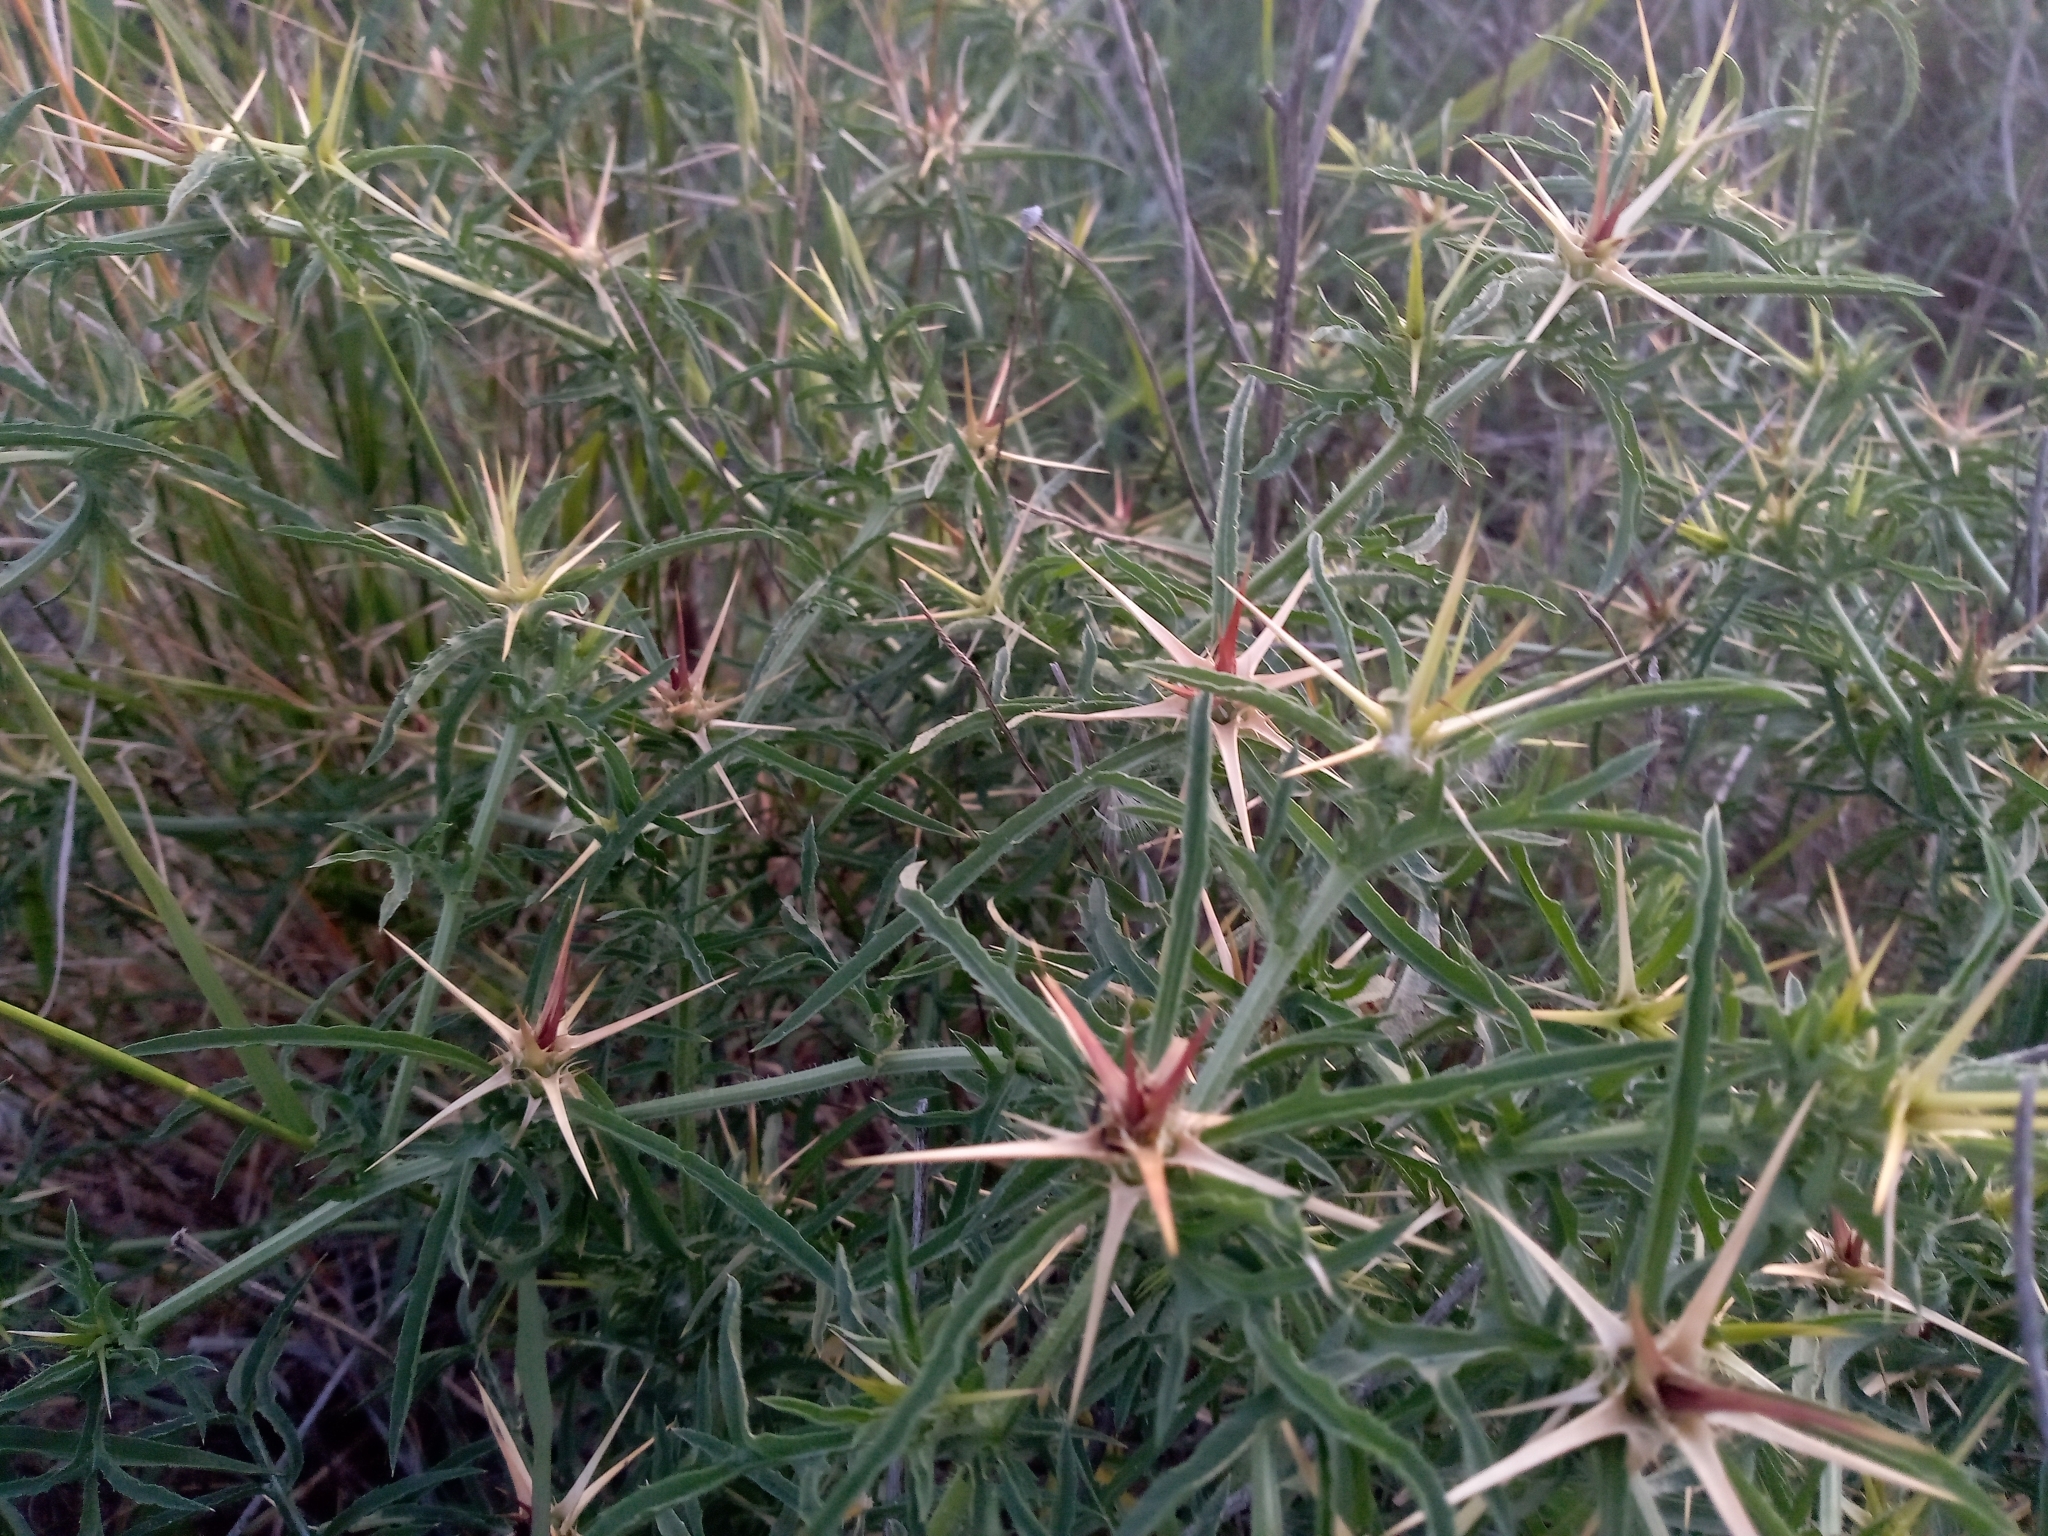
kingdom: Plantae
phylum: Tracheophyta
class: Magnoliopsida
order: Asterales
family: Asteraceae
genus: Centaurea
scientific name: Centaurea calcitrapa
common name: Red star-thistle
